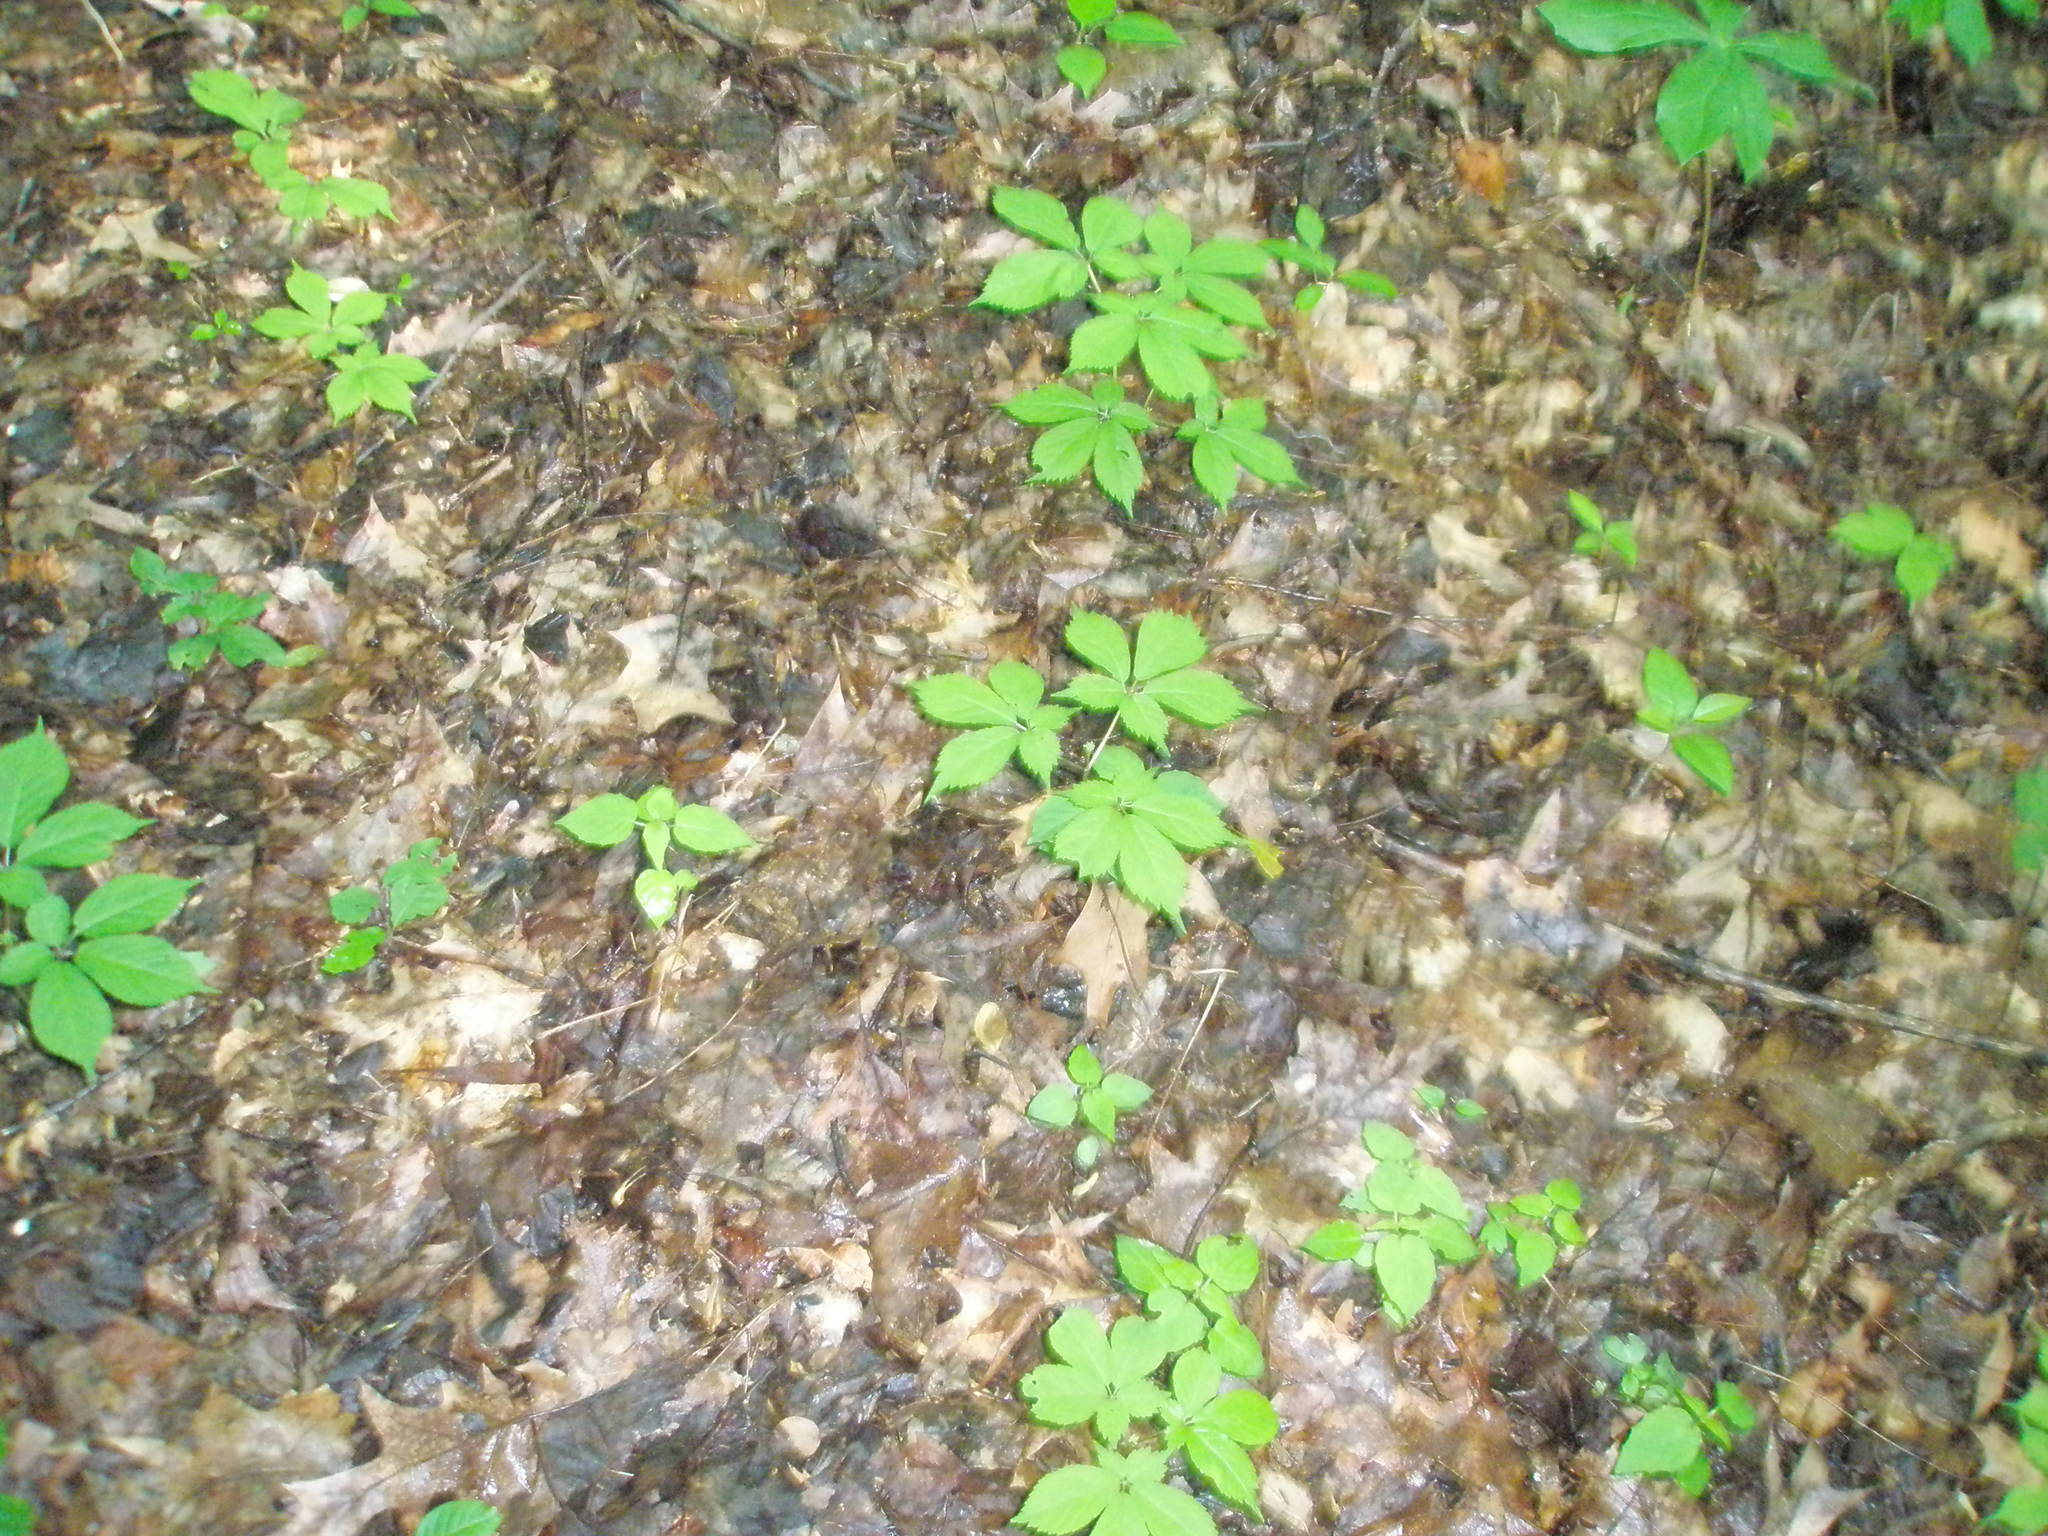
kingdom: Plantae
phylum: Tracheophyta
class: Magnoliopsida
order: Apiales
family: Araliaceae
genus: Panax
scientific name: Panax quinquefolius
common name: American ginseng
